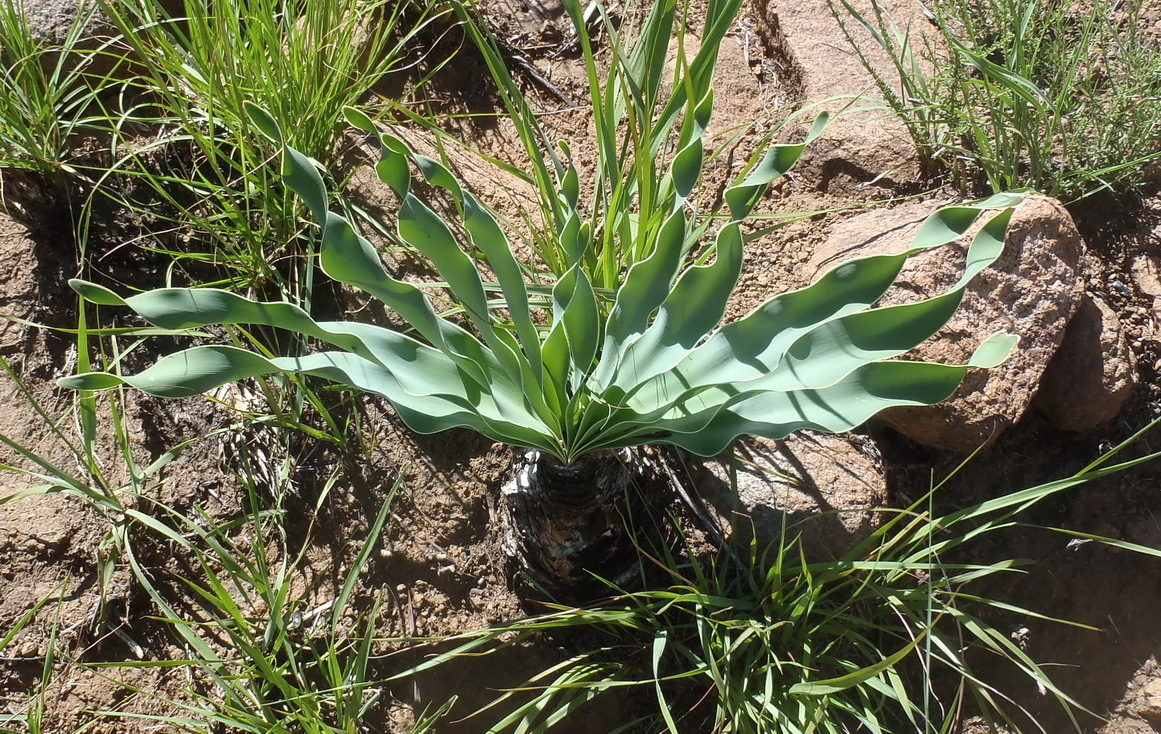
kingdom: Plantae
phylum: Tracheophyta
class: Liliopsida
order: Asparagales
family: Amaryllidaceae
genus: Boophone
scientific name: Boophone disticha
